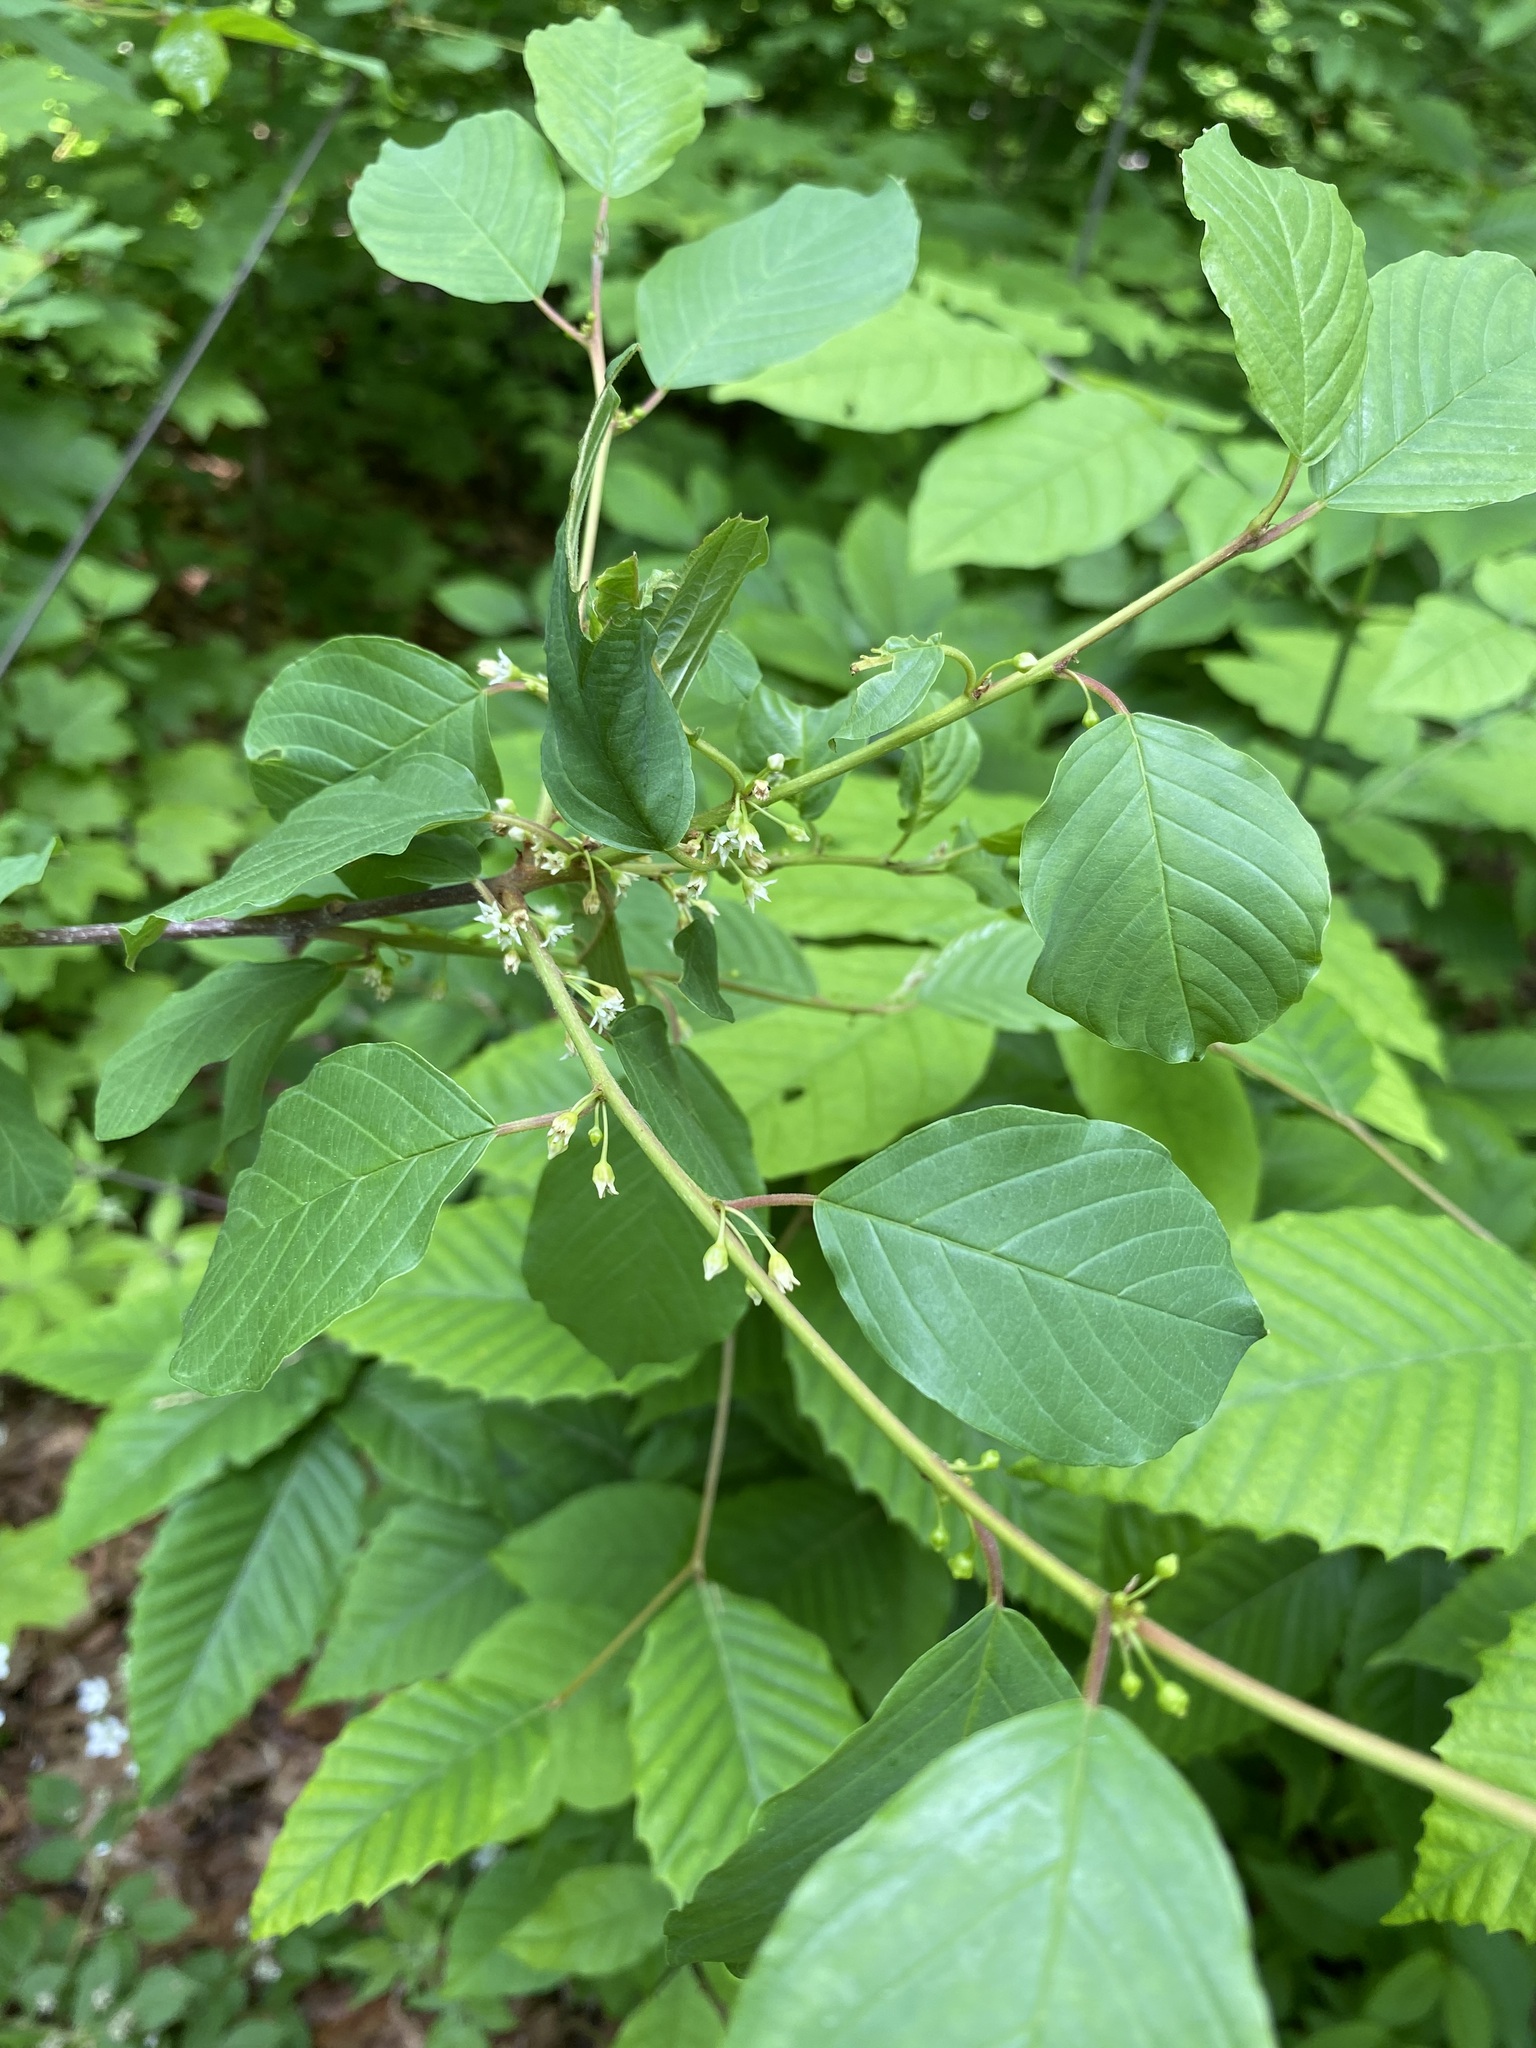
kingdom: Plantae
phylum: Tracheophyta
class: Magnoliopsida
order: Rosales
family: Rhamnaceae
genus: Frangula
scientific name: Frangula alnus
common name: Alder buckthorn
